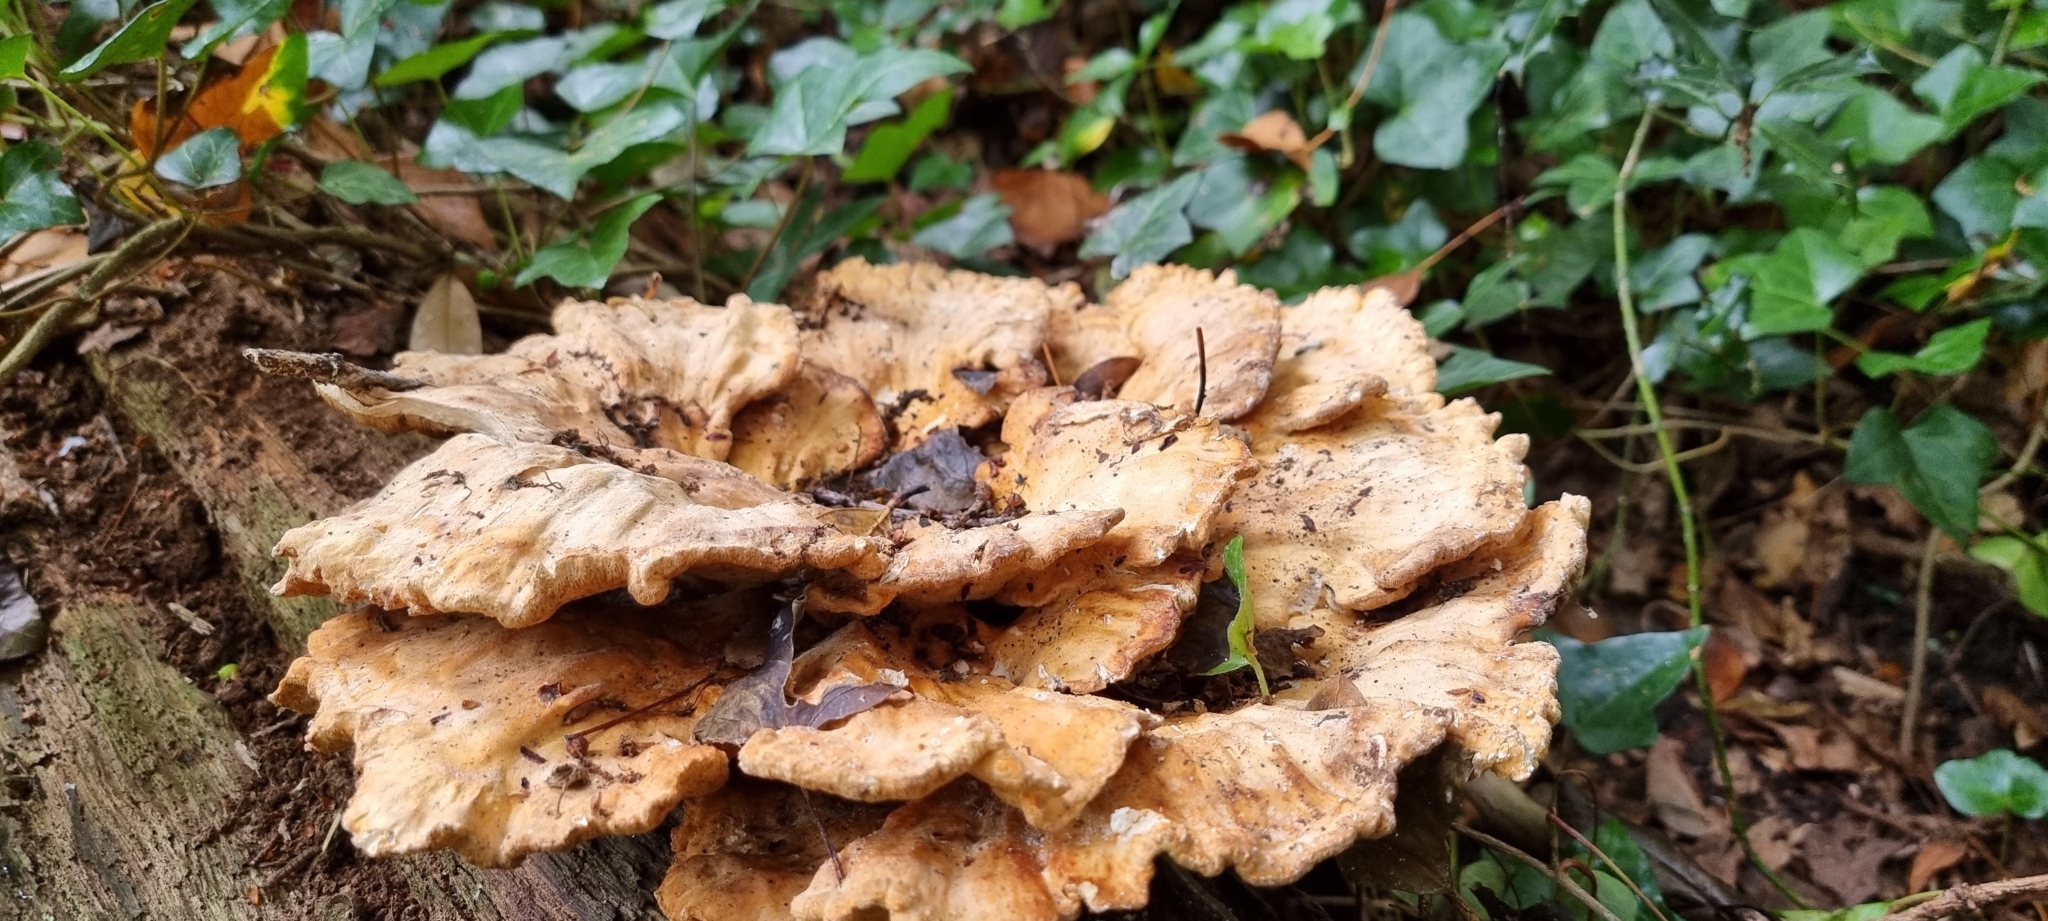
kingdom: Fungi
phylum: Basidiomycota
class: Agaricomycetes
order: Polyporales
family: Laetiporaceae
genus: Laetiporus
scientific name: Laetiporus sulphureus
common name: Chicken of the woods
